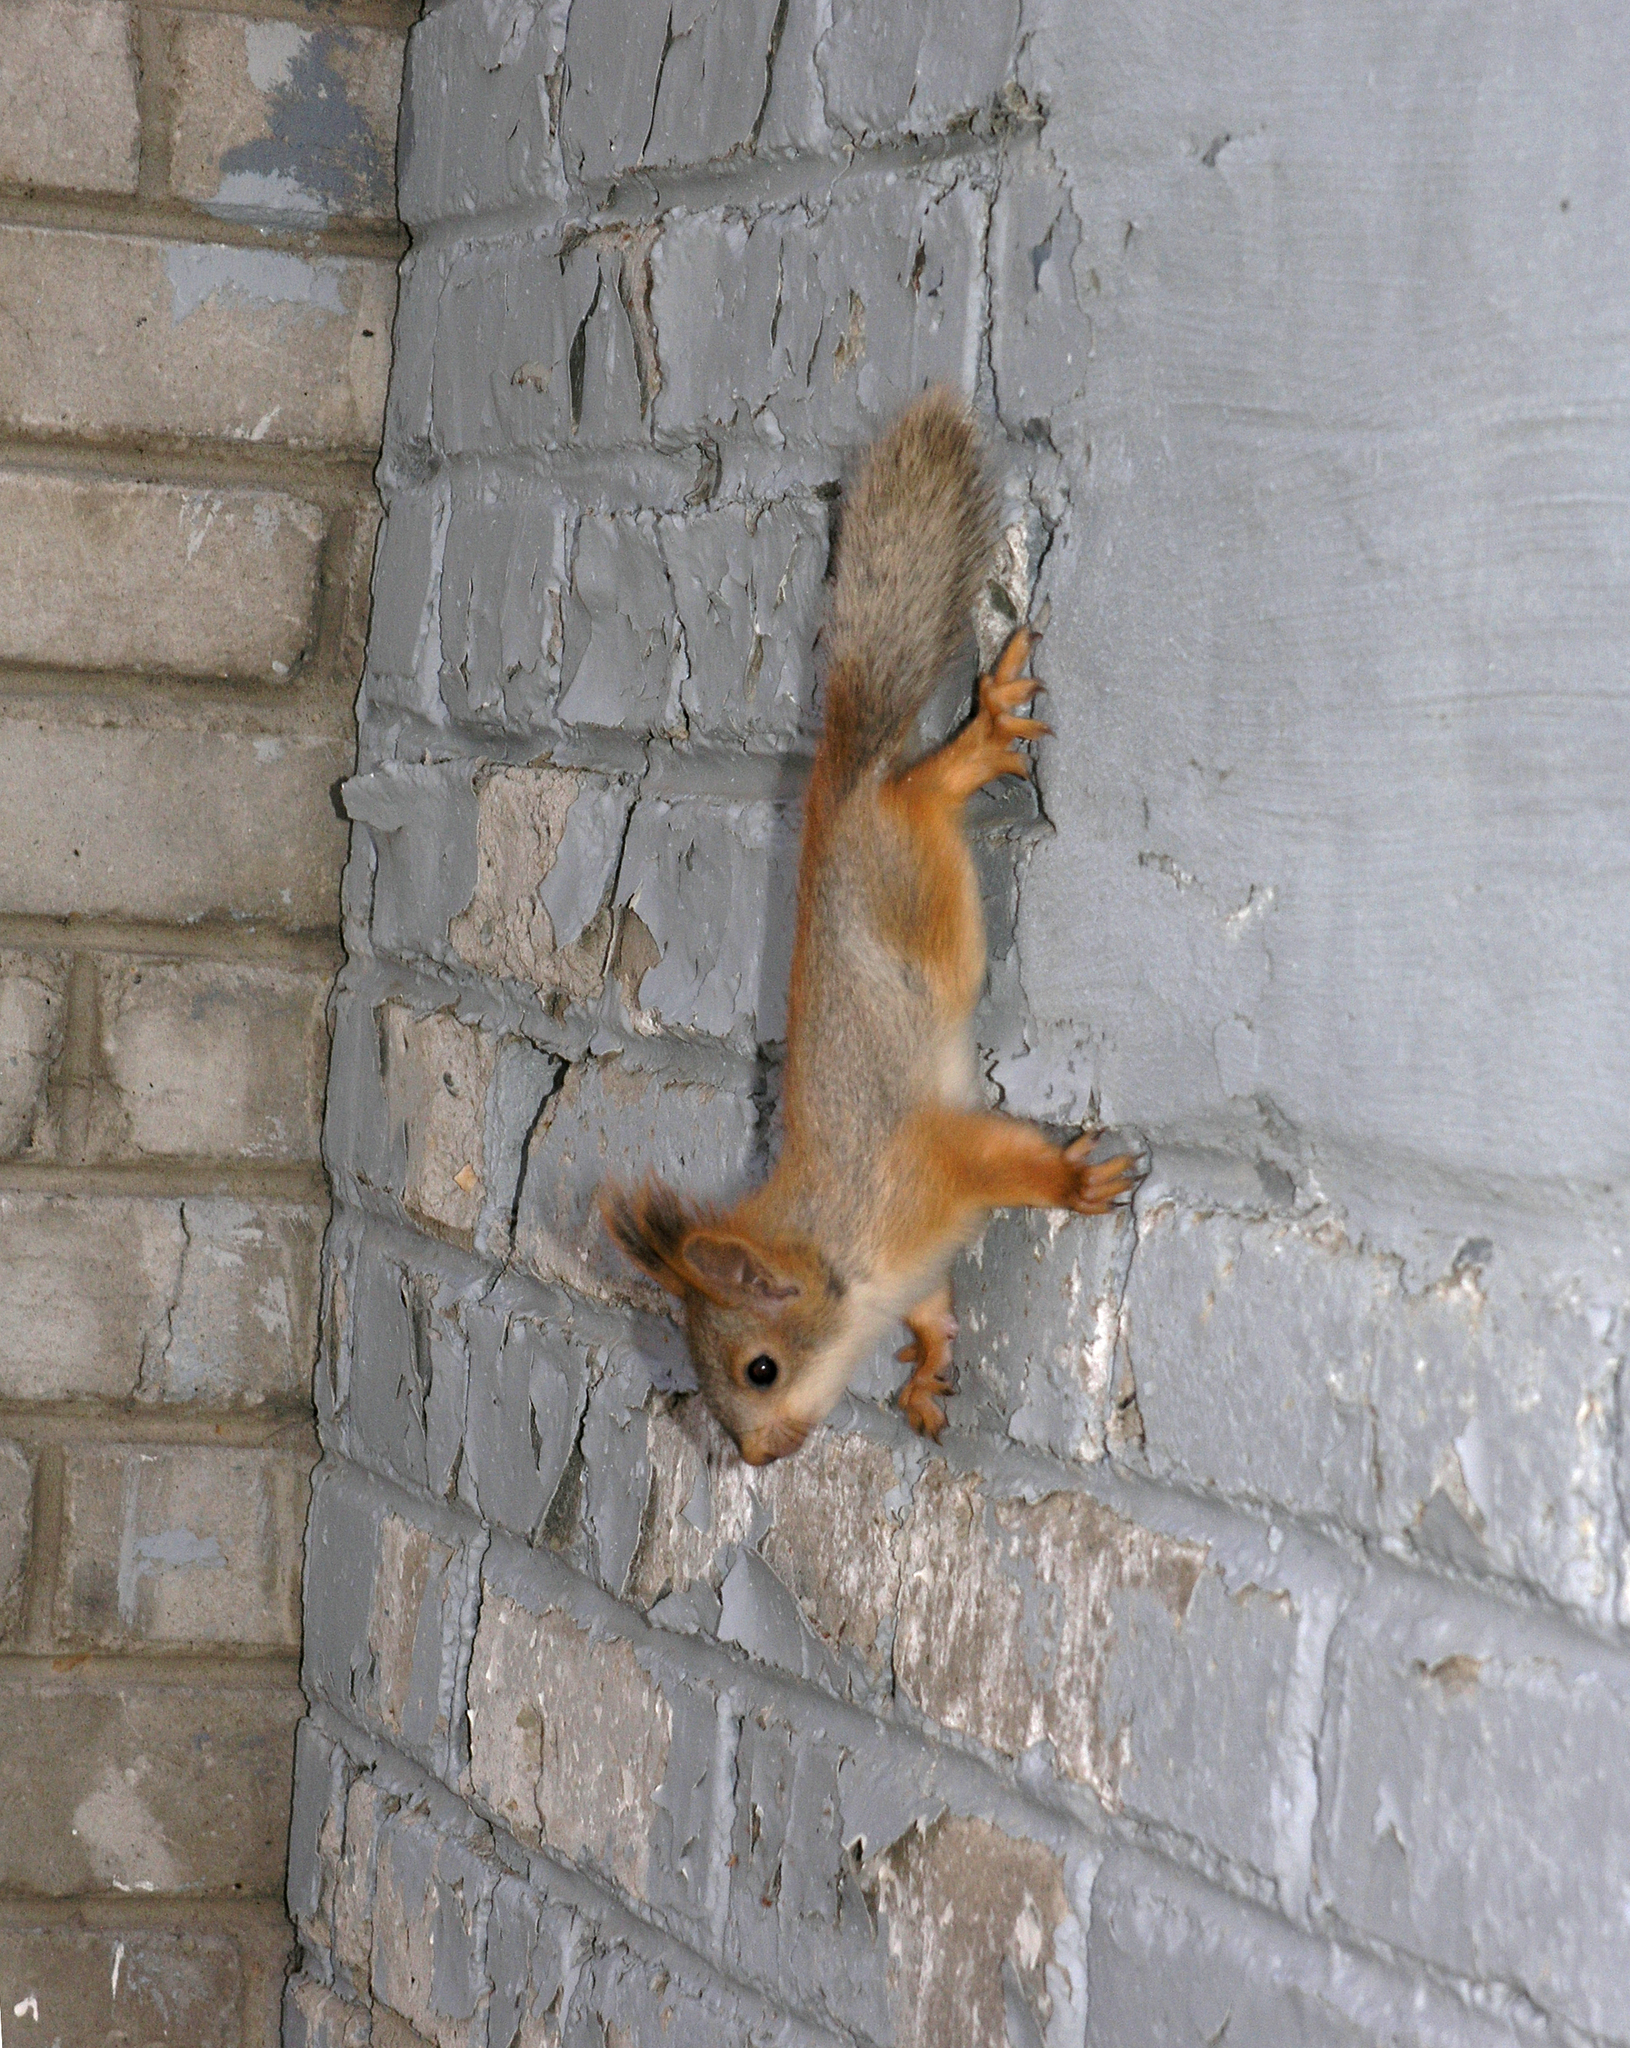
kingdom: Animalia
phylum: Chordata
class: Mammalia
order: Rodentia
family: Sciuridae
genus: Sciurus
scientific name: Sciurus vulgaris
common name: Eurasian red squirrel
